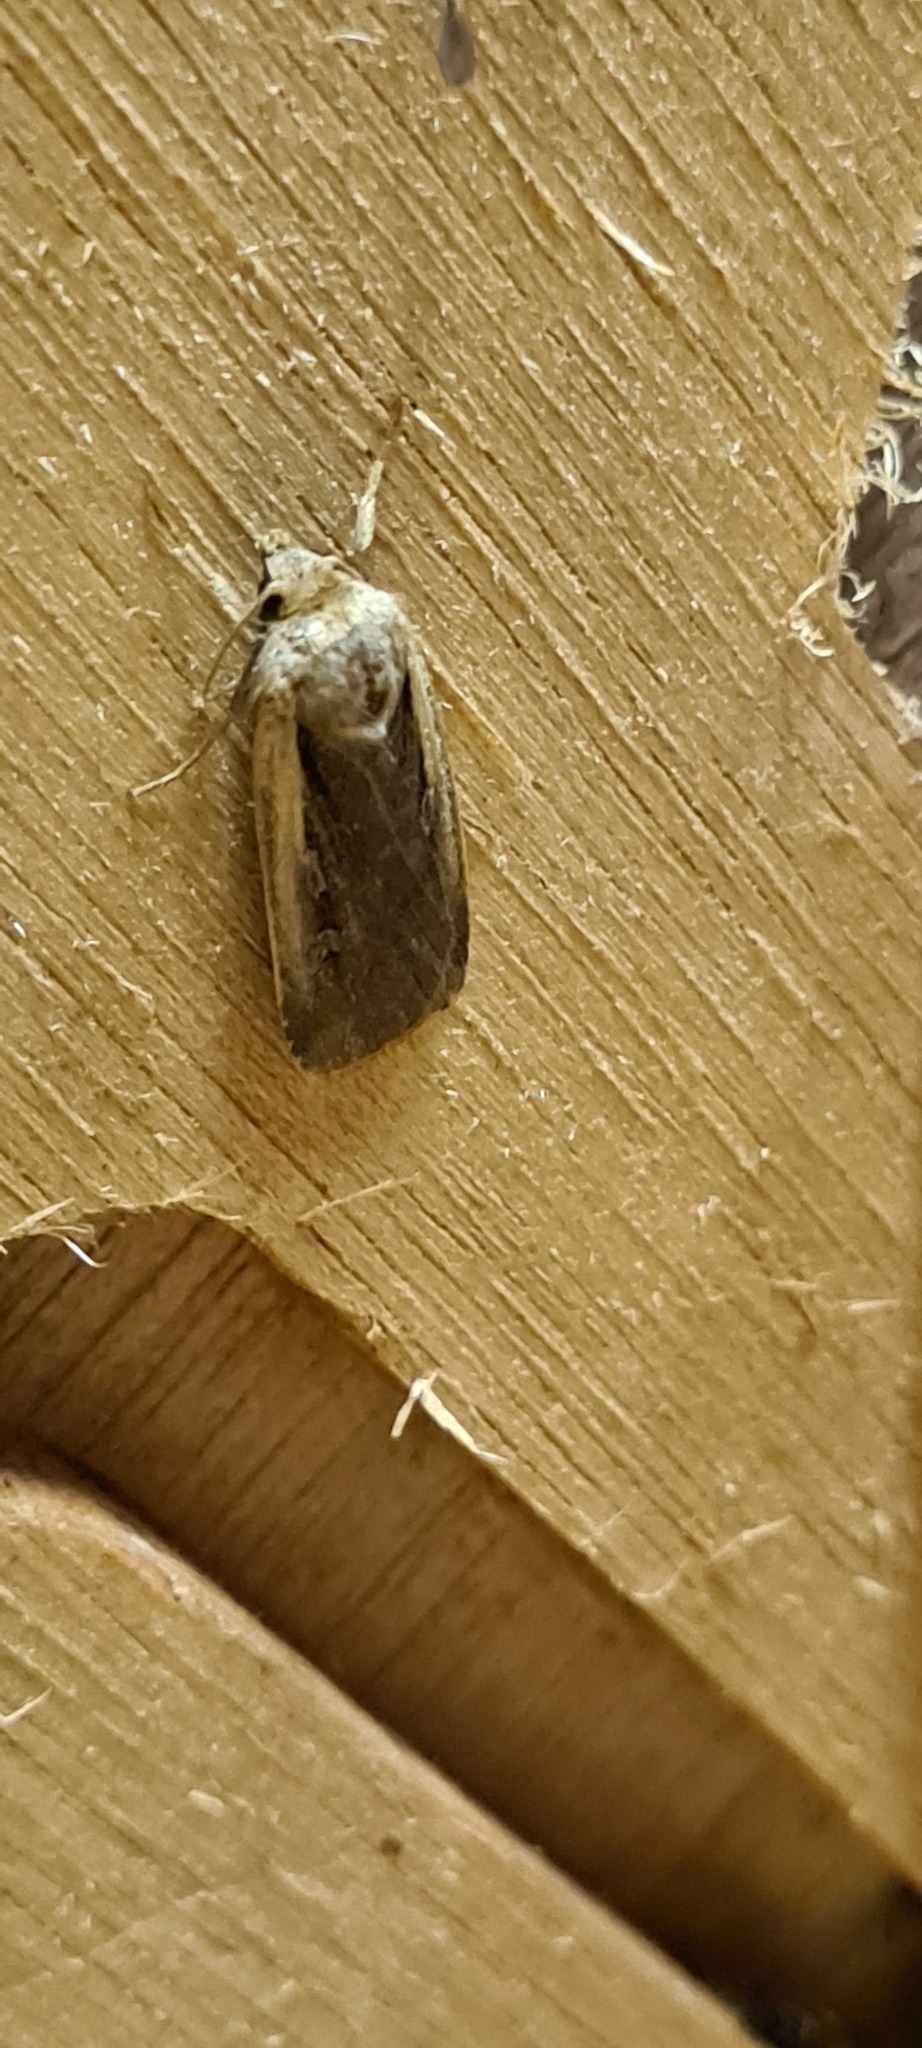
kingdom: Animalia
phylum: Arthropoda
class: Insecta
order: Lepidoptera
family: Noctuidae
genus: Ochropleura
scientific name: Ochropleura plecta
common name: Flame shoulder
